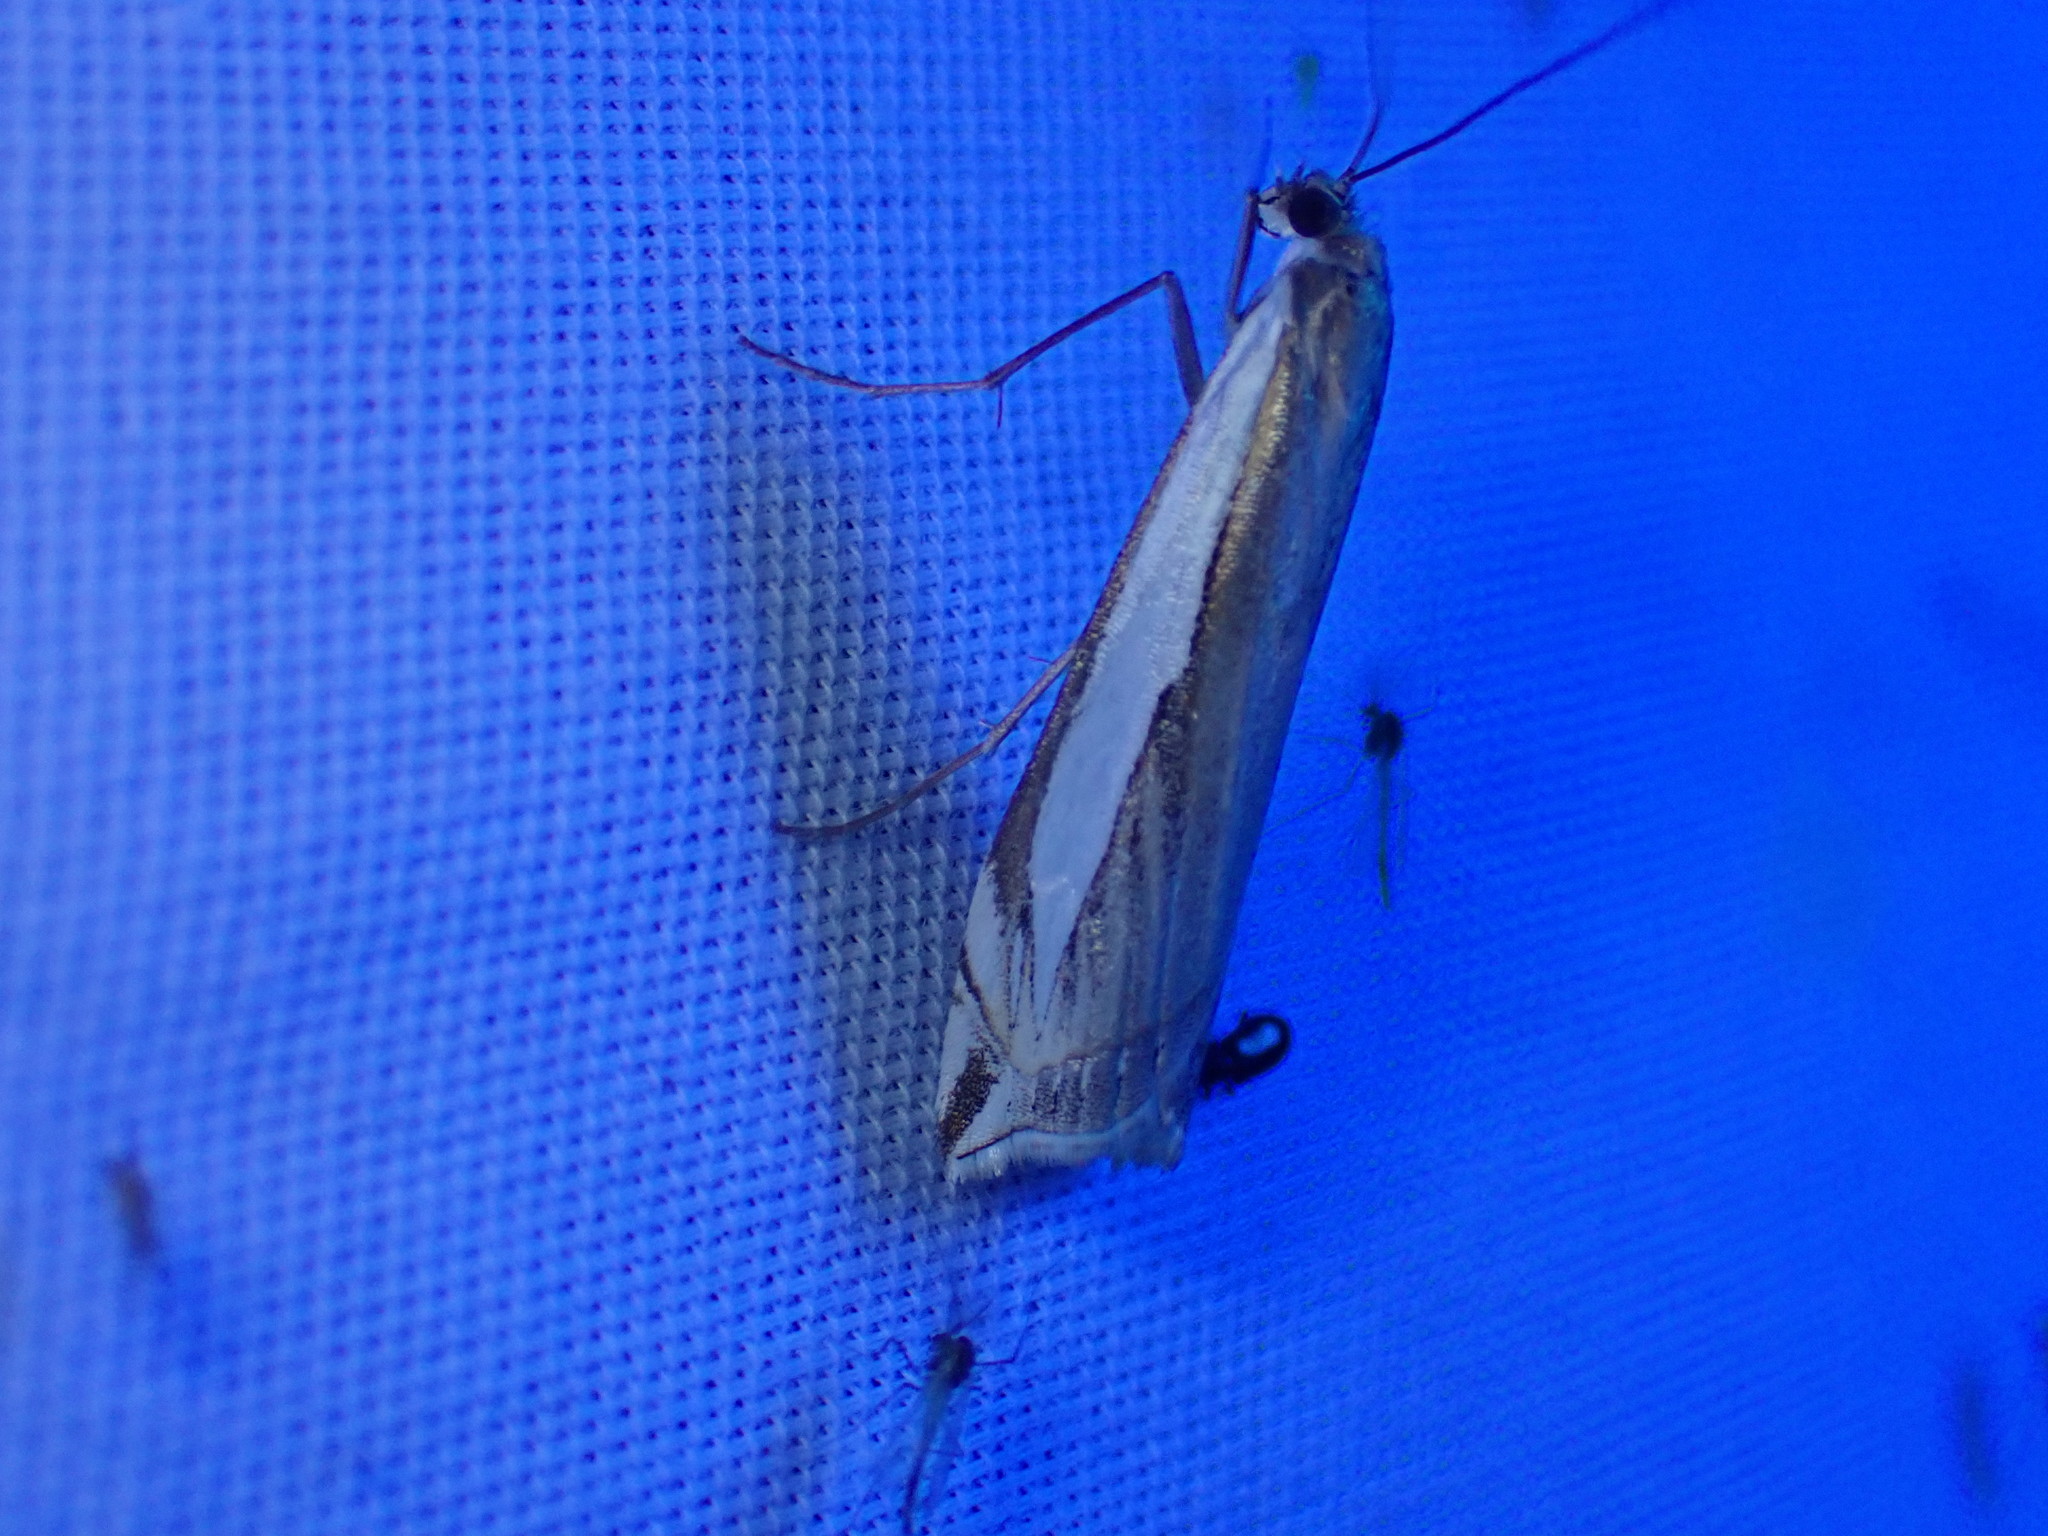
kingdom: Animalia
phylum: Arthropoda
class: Insecta
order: Lepidoptera
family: Crambidae
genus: Crambus
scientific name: Crambus cypridalis
